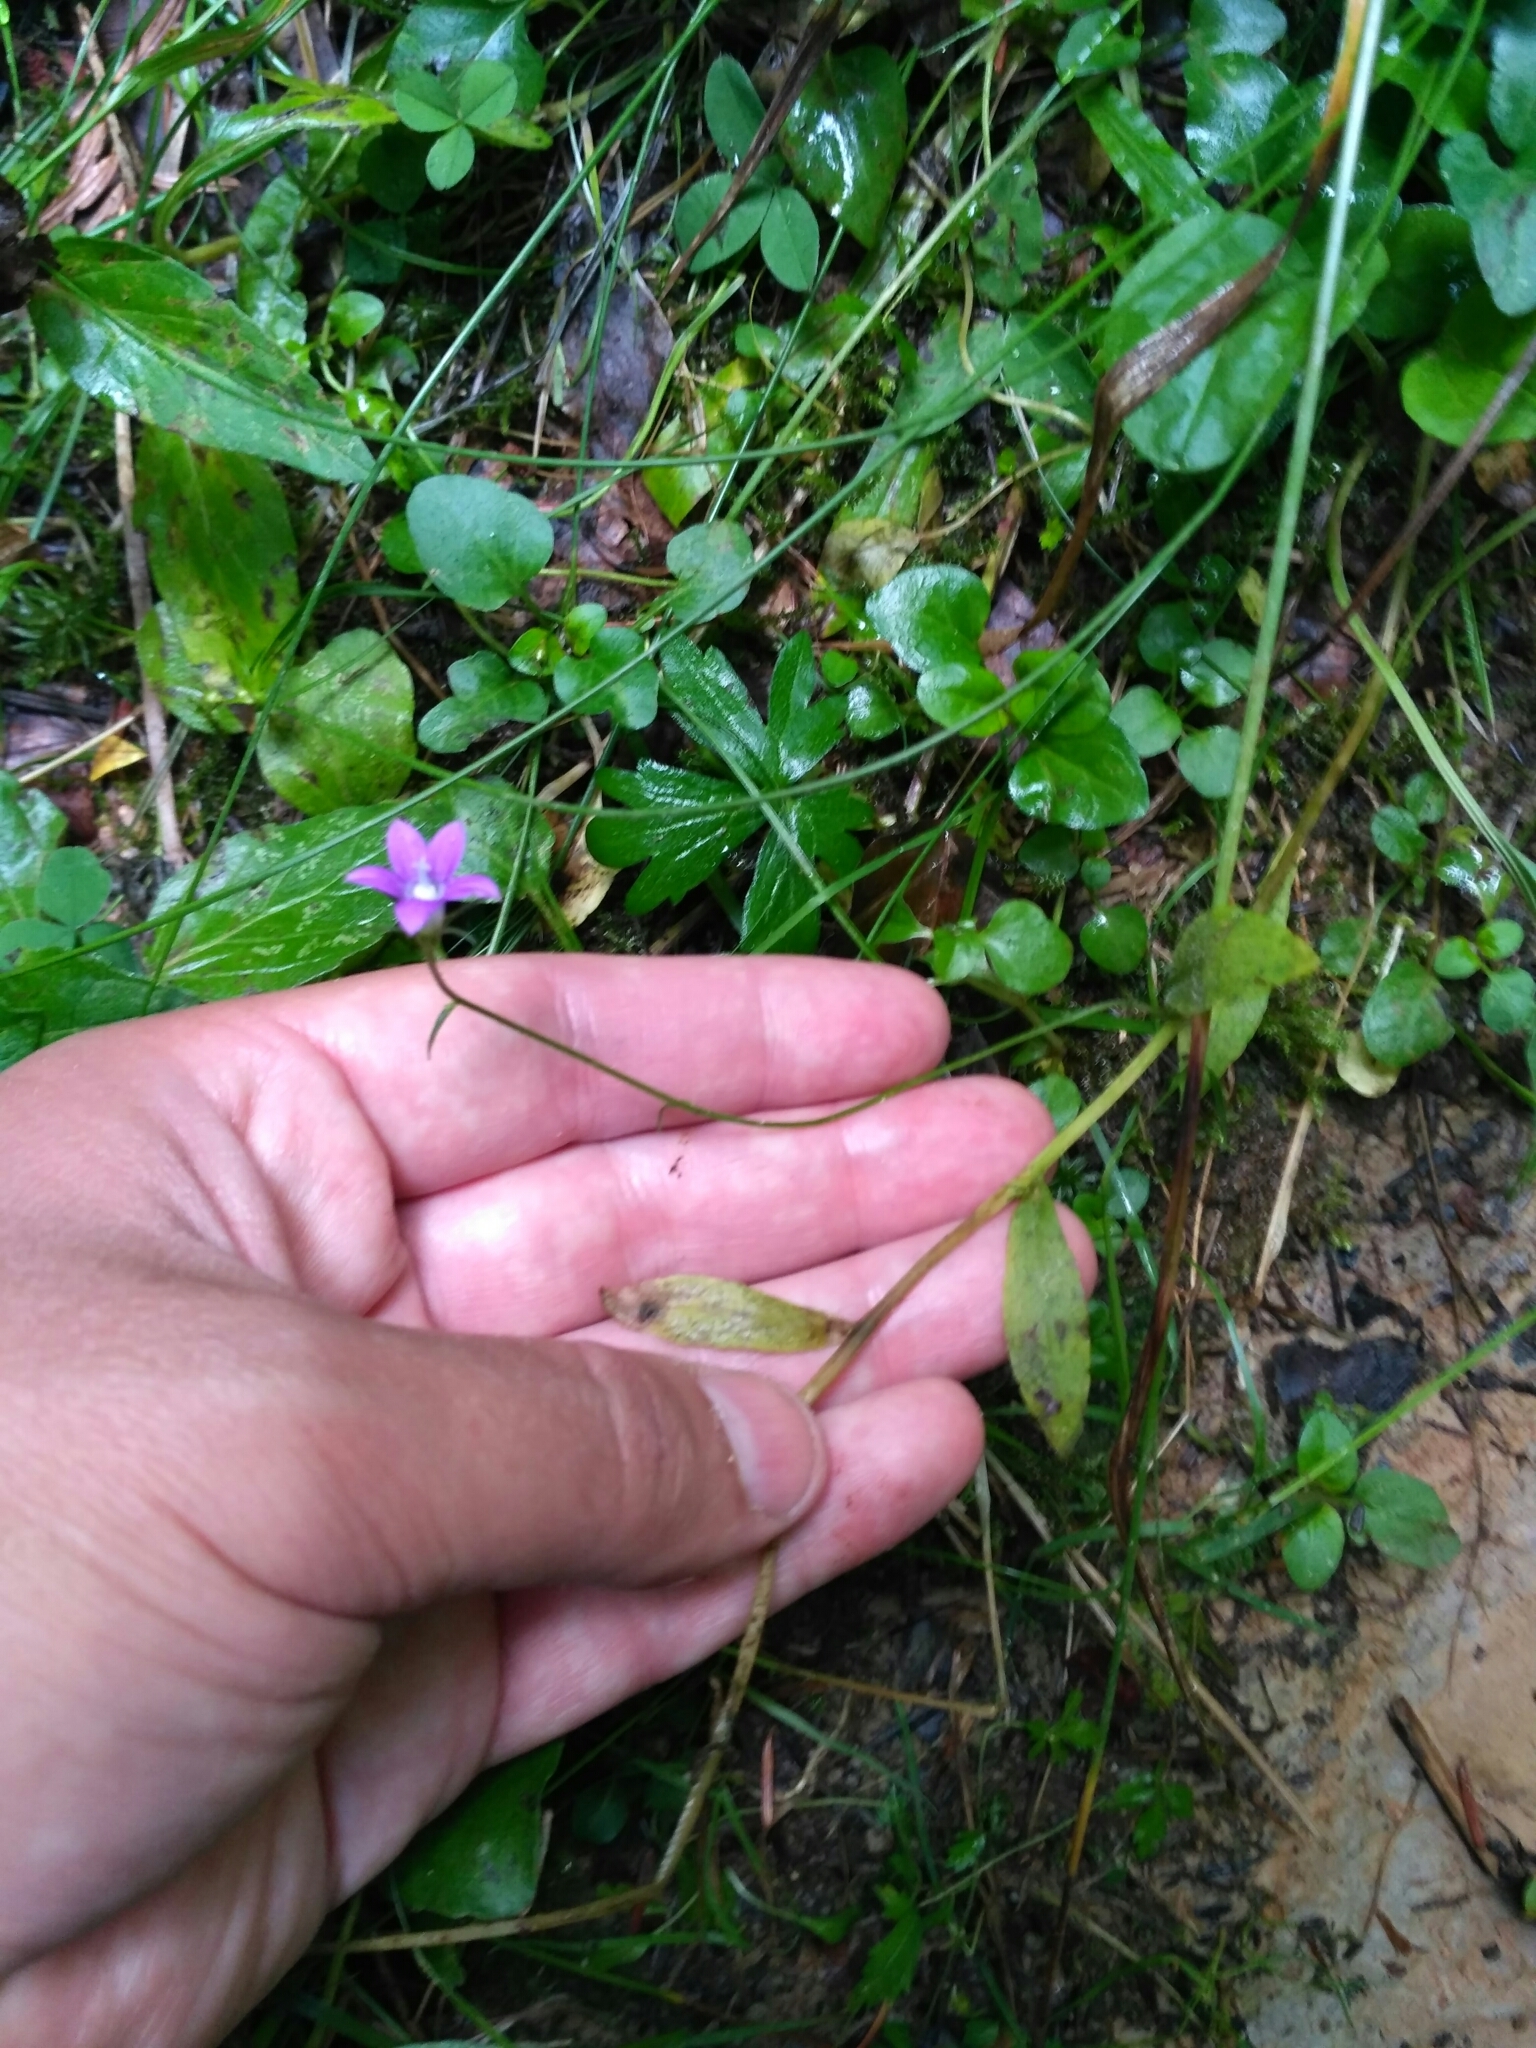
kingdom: Plantae
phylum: Tracheophyta
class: Magnoliopsida
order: Asterales
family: Campanulaceae
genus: Campanula
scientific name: Campanula patula
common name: Spreading bellflower
